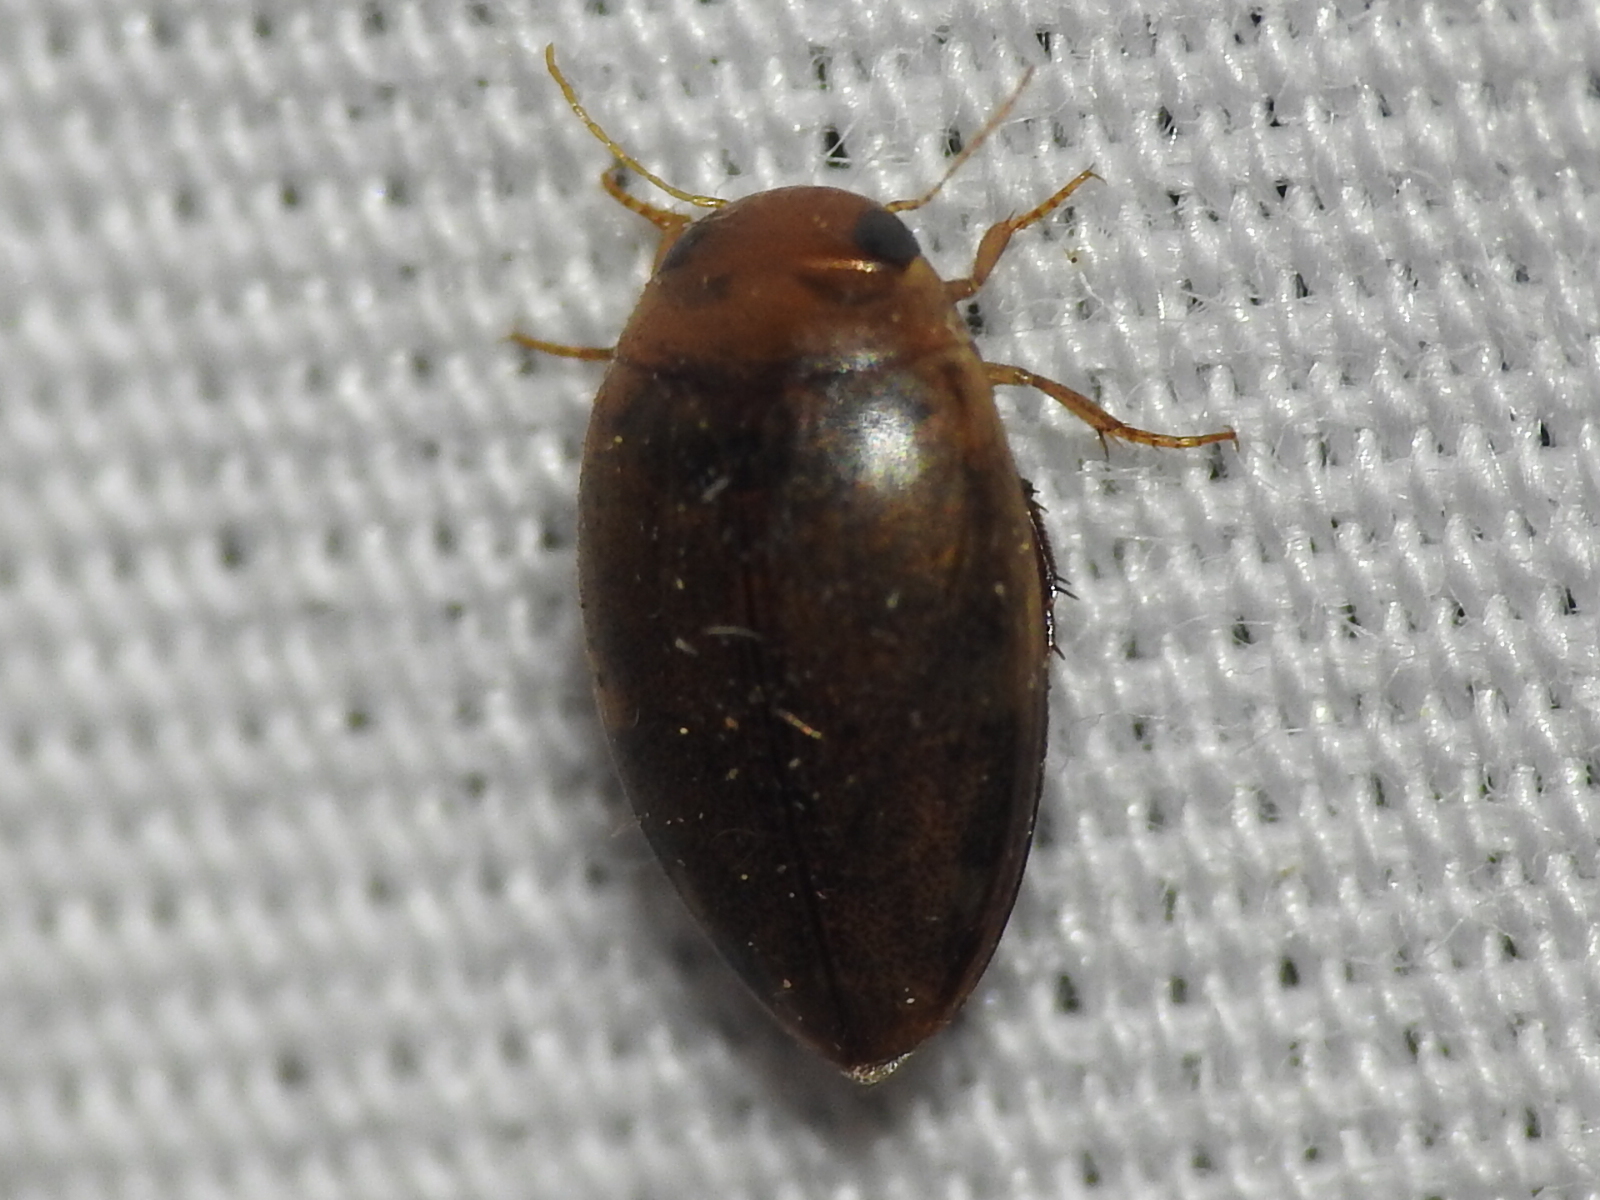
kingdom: Animalia
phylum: Arthropoda
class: Insecta
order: Coleoptera
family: Dytiscidae
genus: Laccophilus
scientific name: Laccophilus proximus
